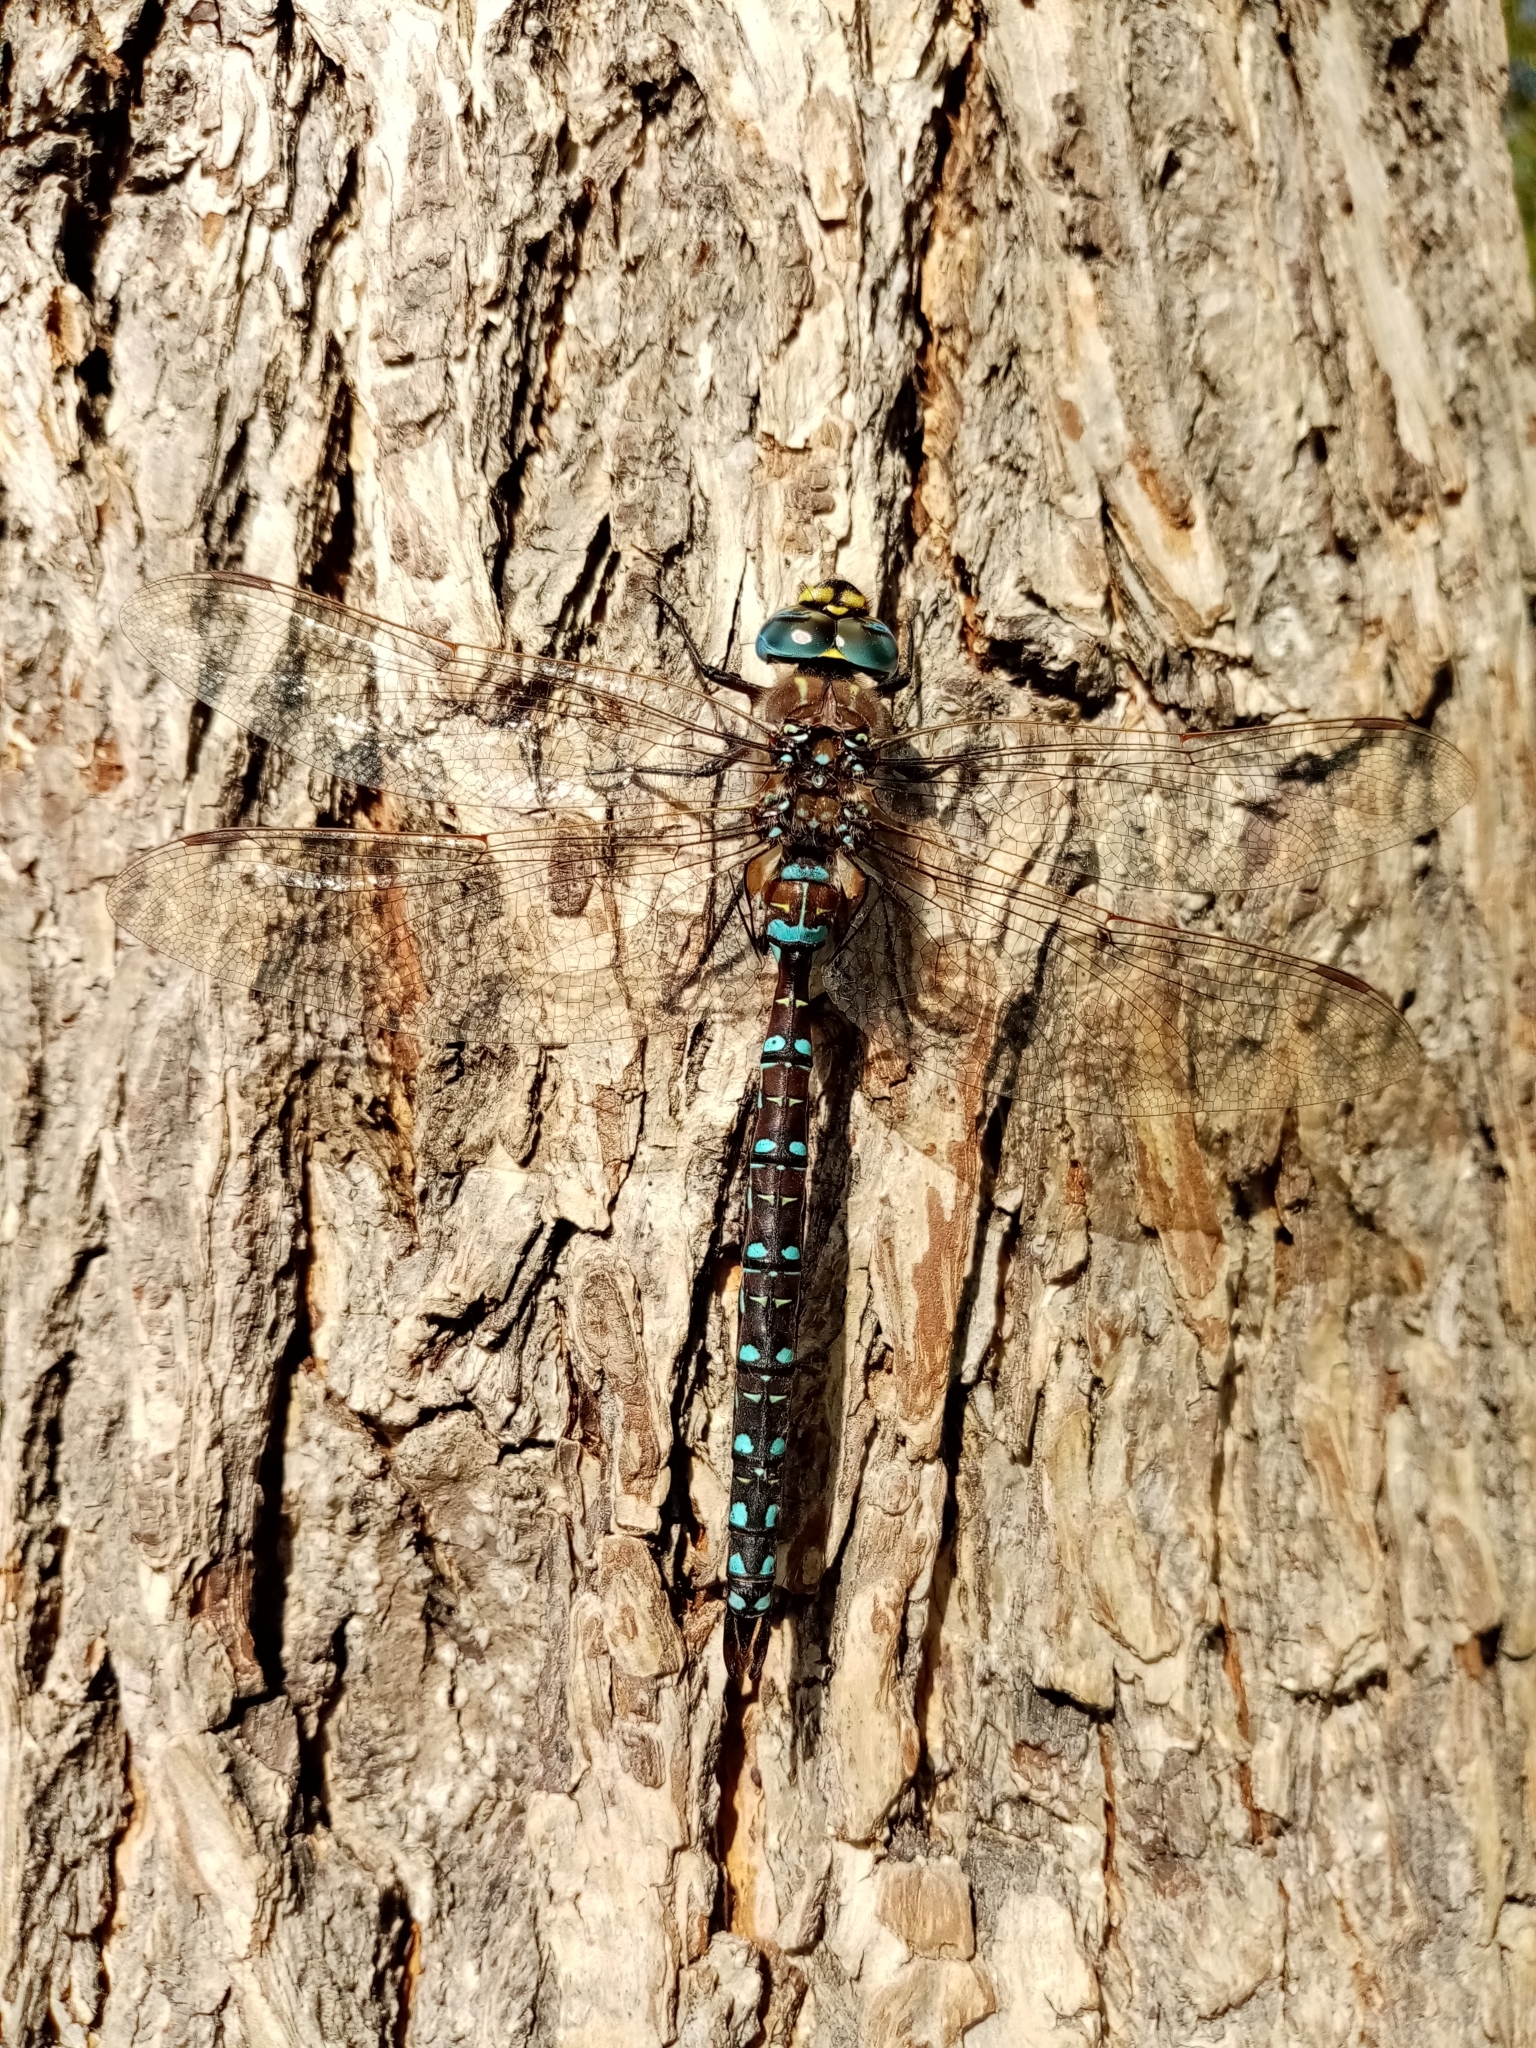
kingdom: Animalia
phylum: Arthropoda
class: Insecta
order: Odonata
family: Aeshnidae
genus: Aeshna
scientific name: Aeshna juncea
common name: Moorland hawker
